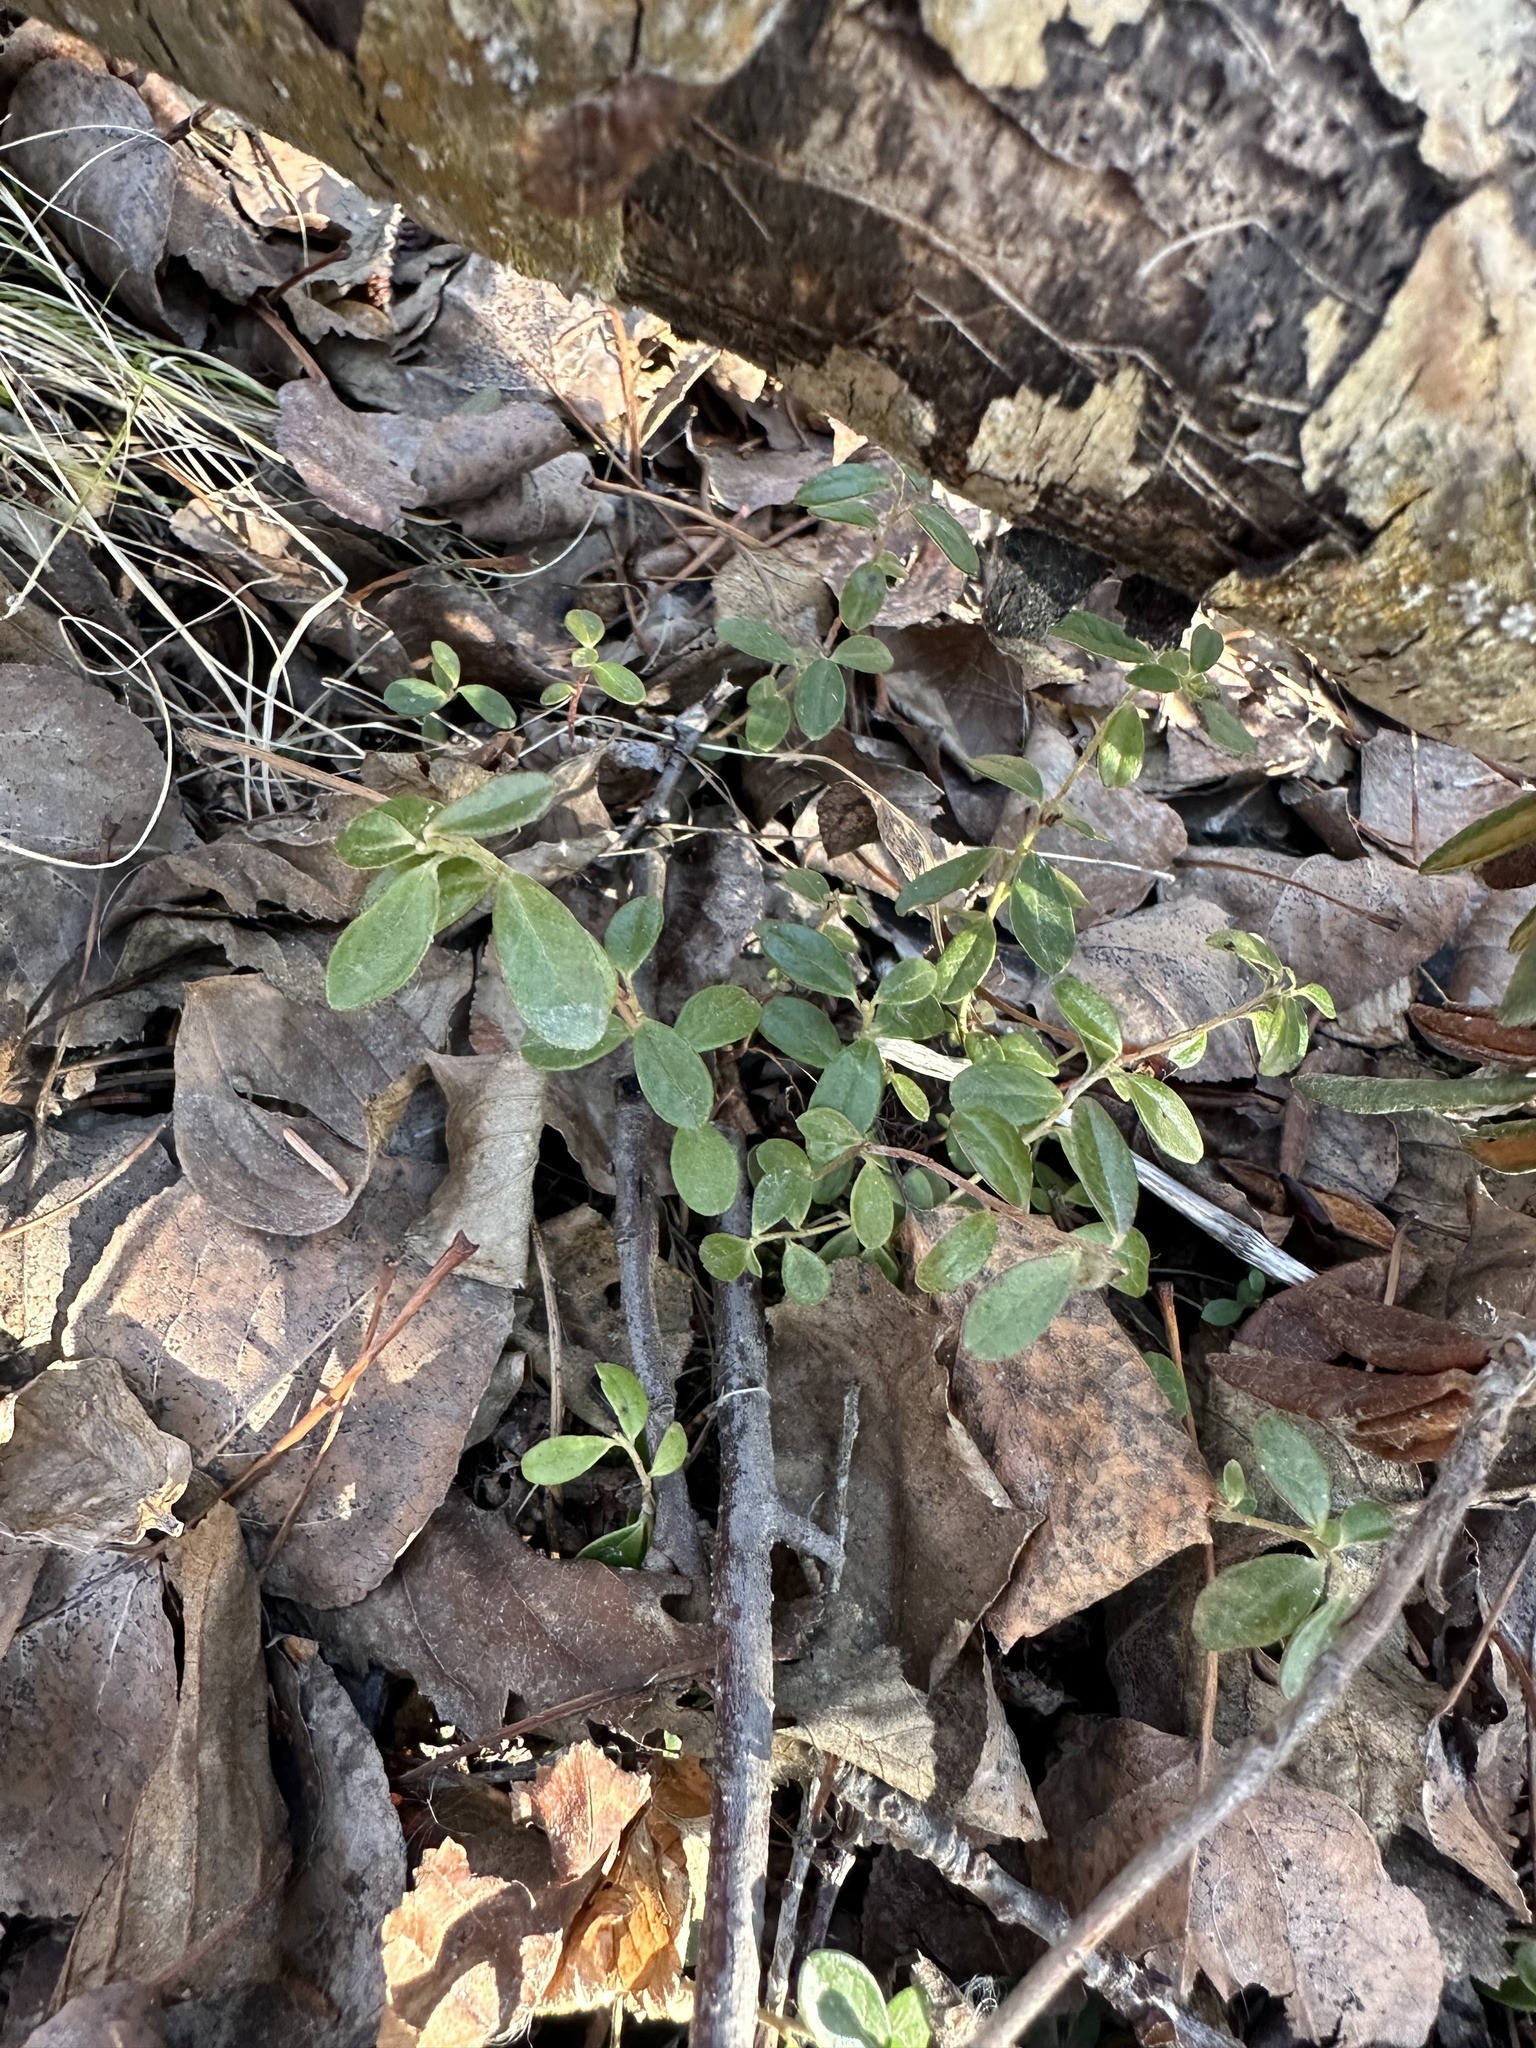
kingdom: Plantae
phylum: Tracheophyta
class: Magnoliopsida
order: Ericales
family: Ericaceae
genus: Vaccinium
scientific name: Vaccinium vitis-idaea
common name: Cowberry
